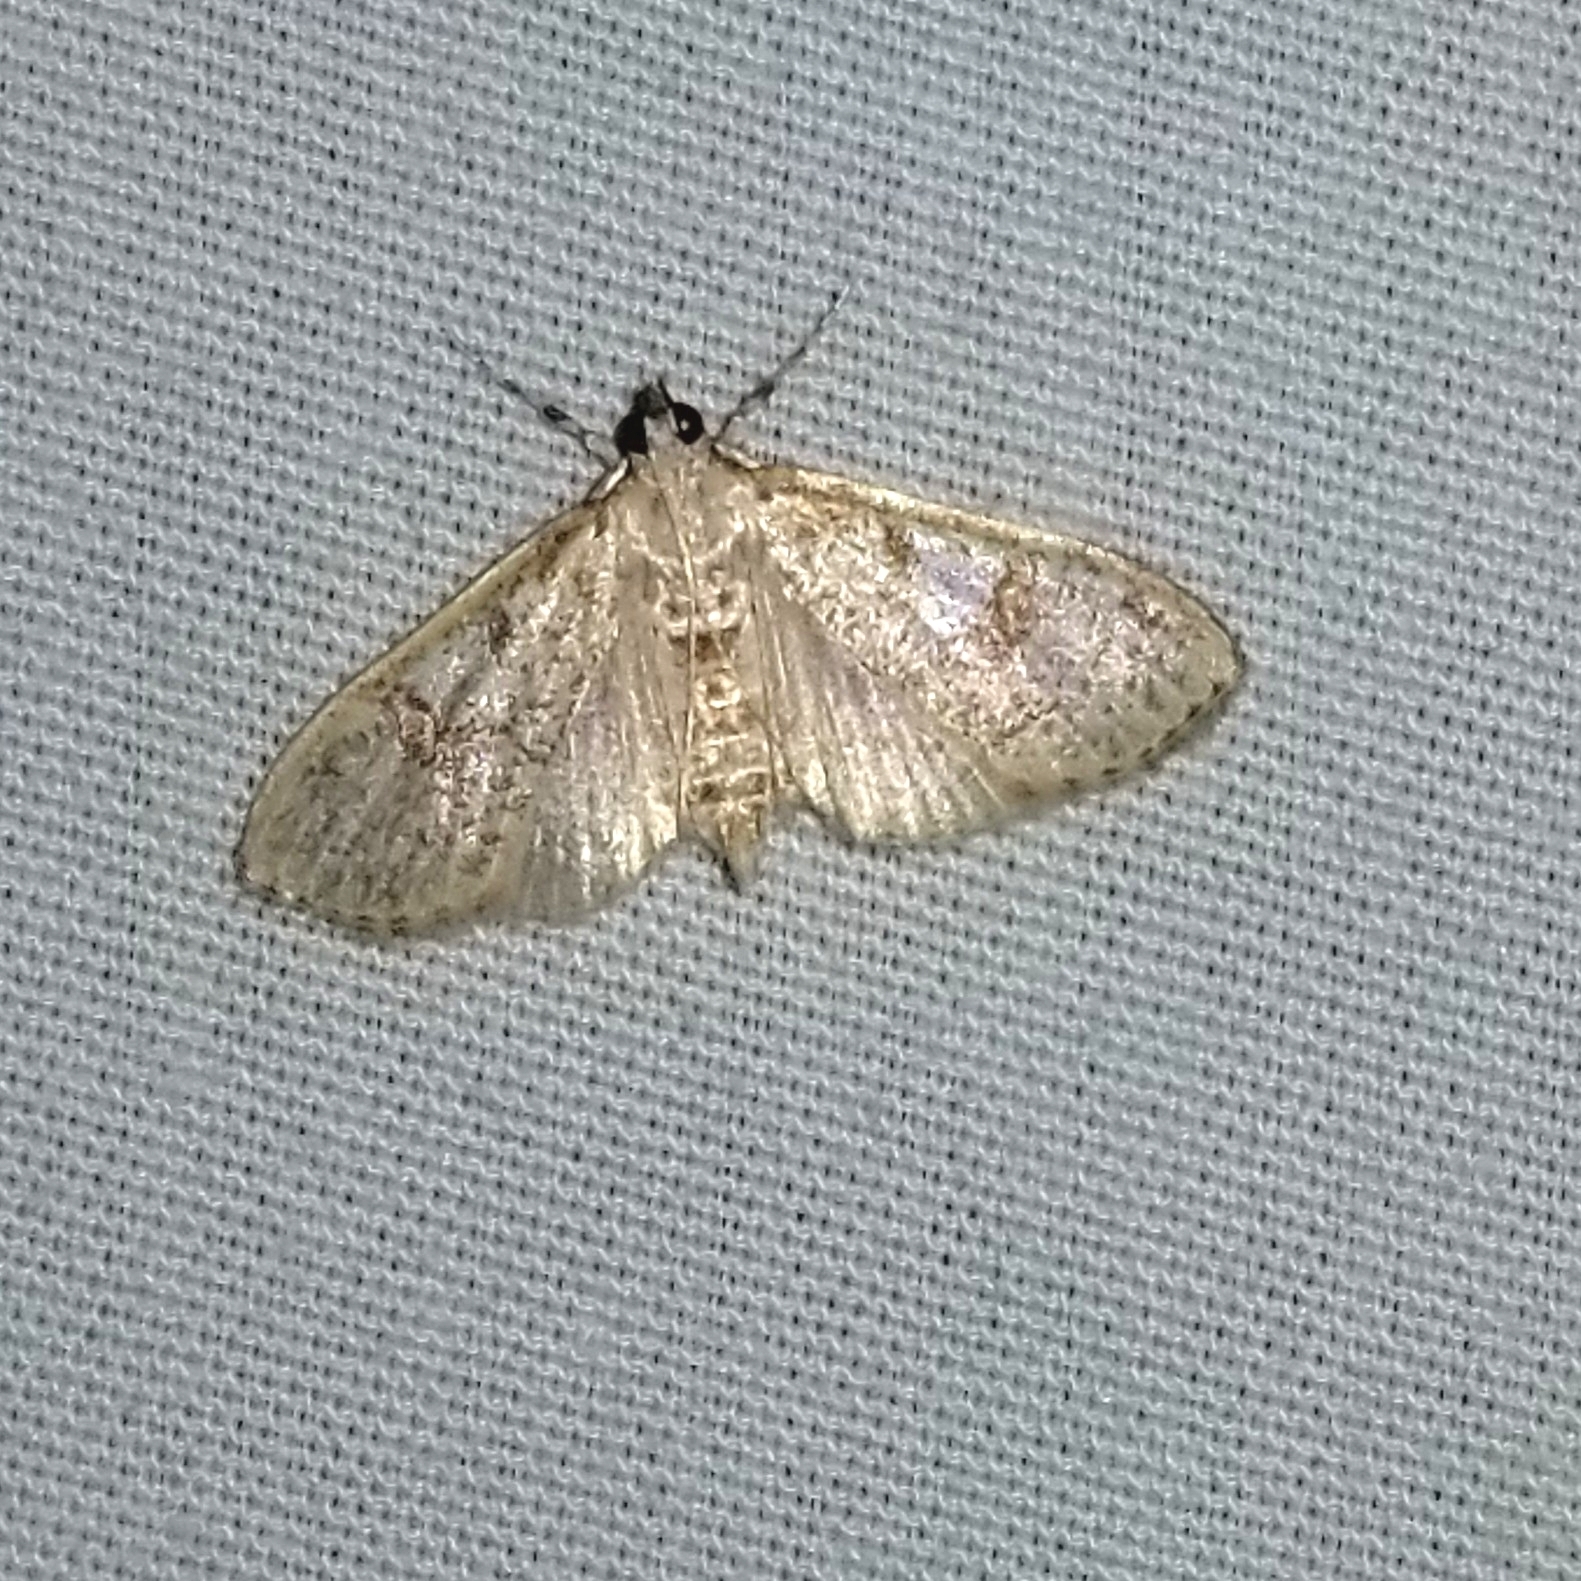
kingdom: Animalia
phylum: Arthropoda
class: Insecta
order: Lepidoptera
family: Crambidae
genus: Palpita
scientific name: Palpita freemanalis
